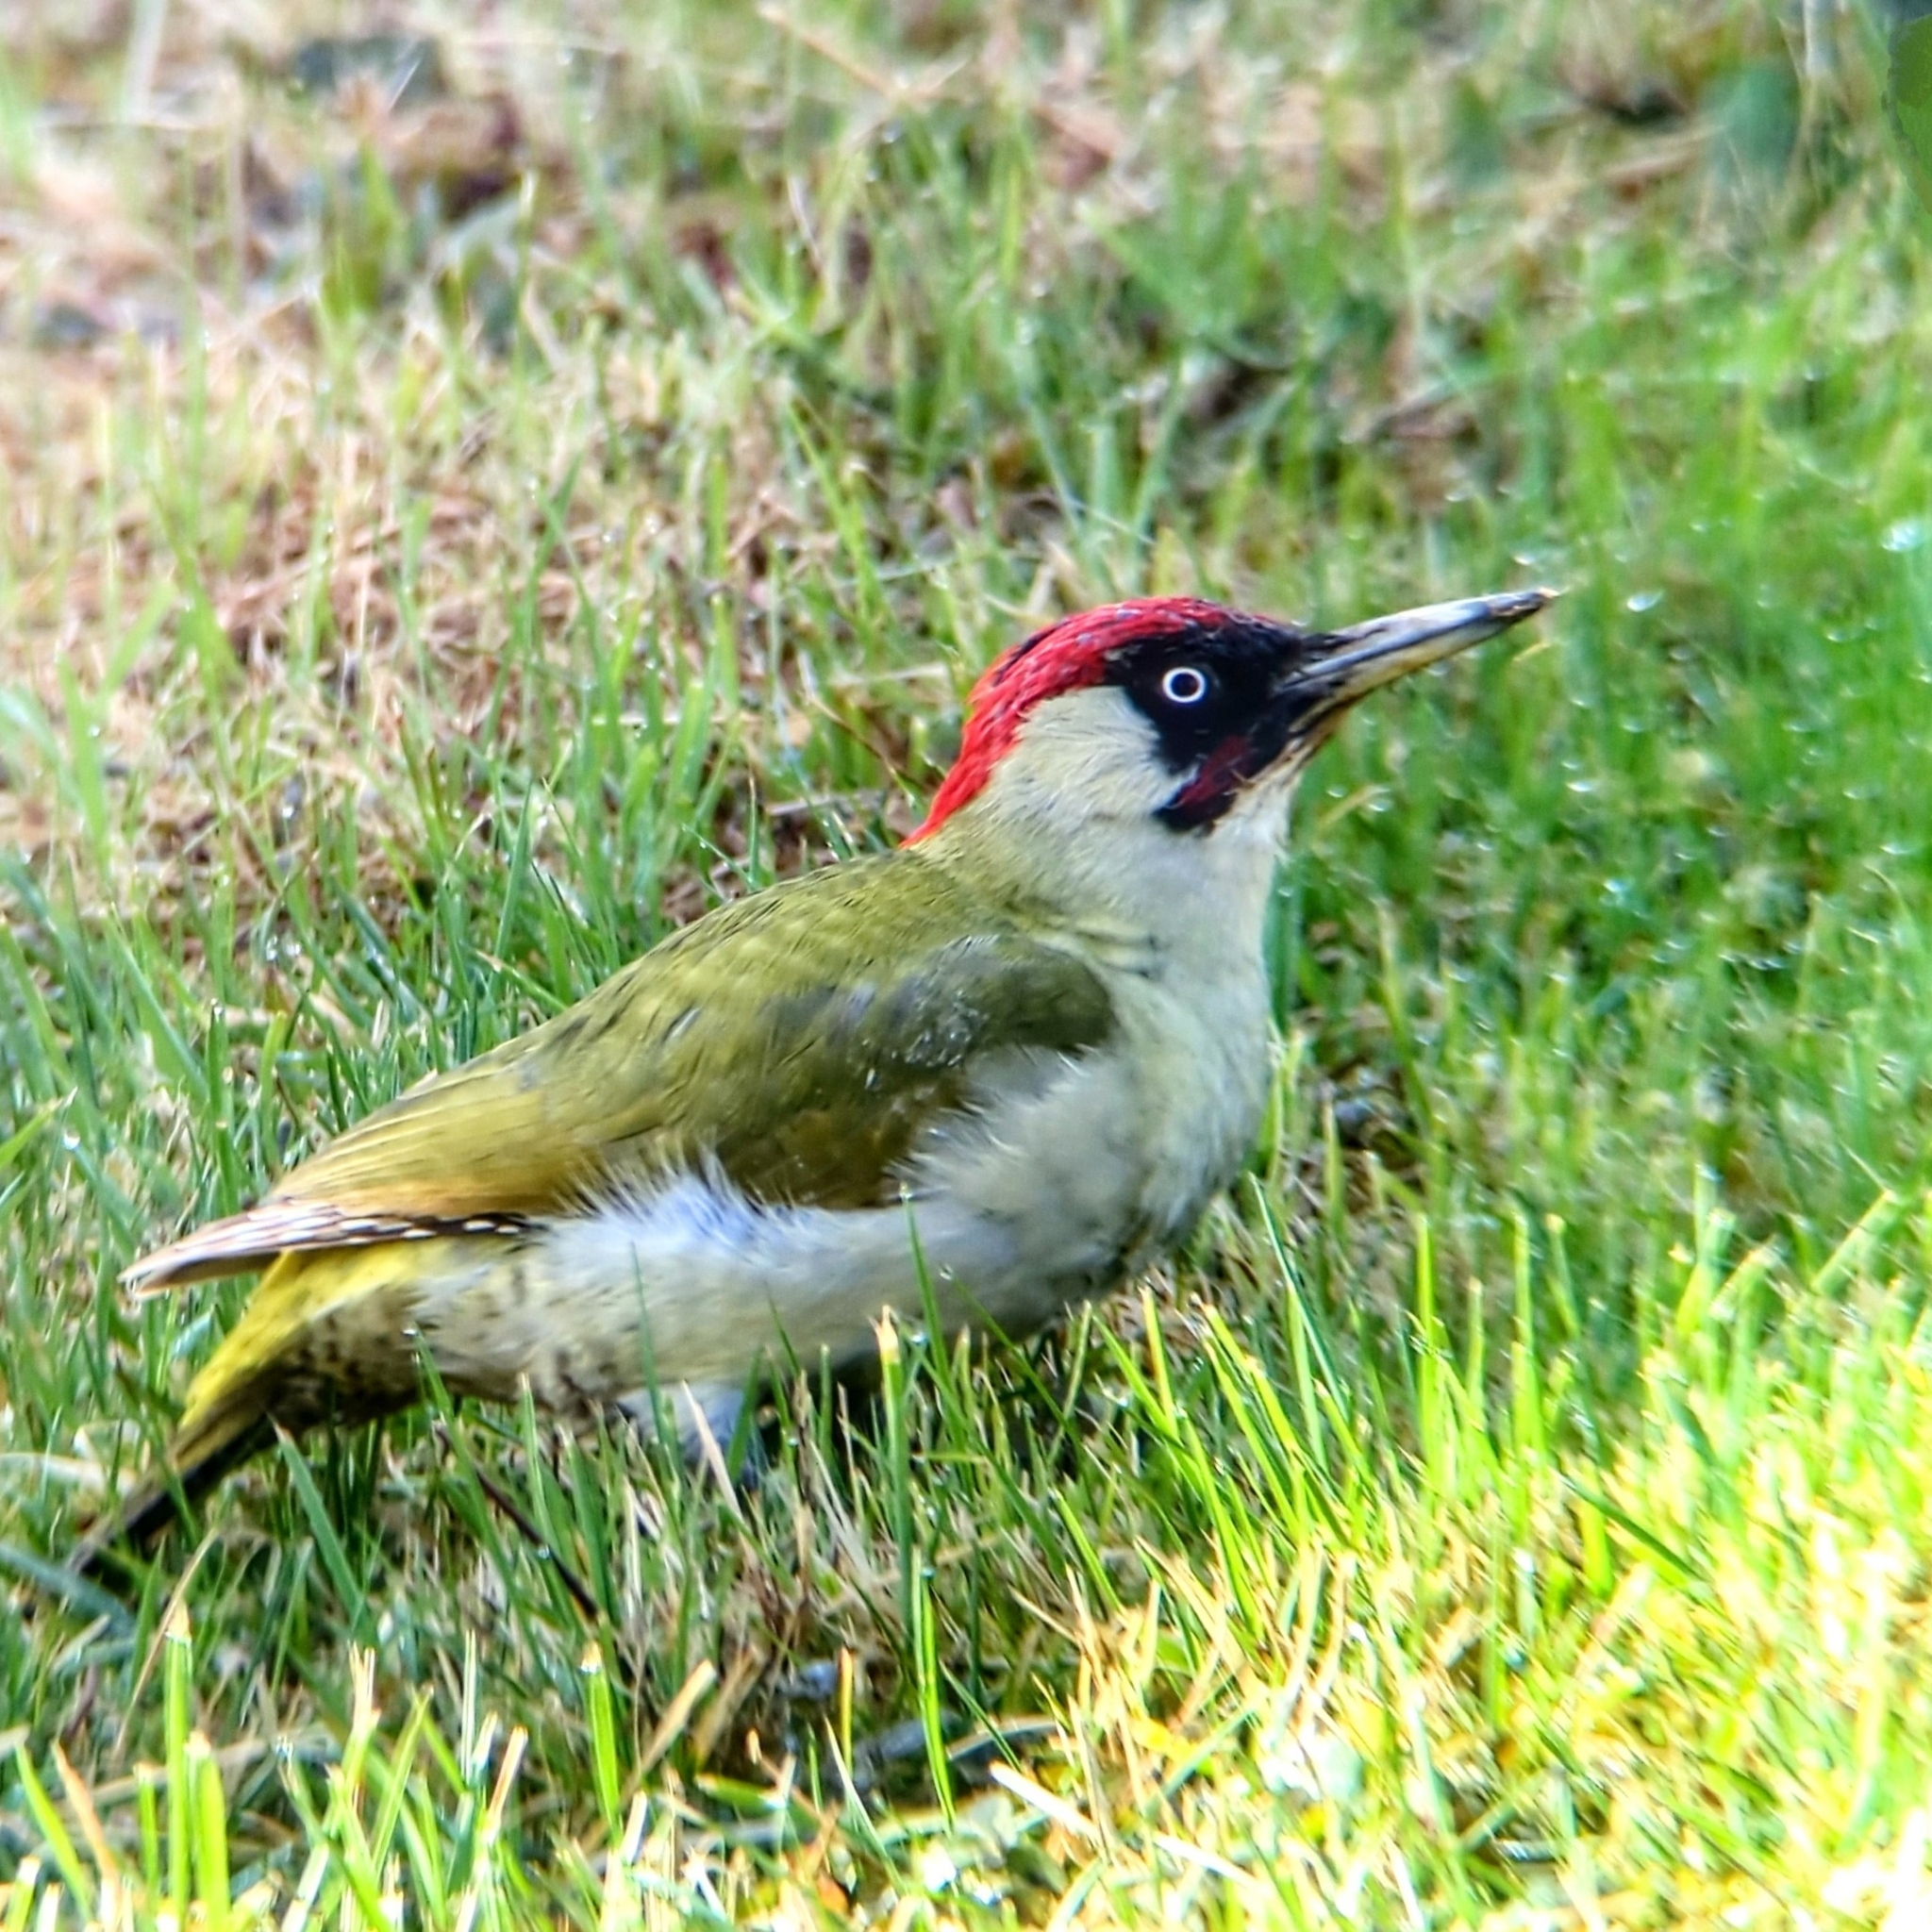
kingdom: Animalia
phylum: Chordata
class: Aves
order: Piciformes
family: Picidae
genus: Picus
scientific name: Picus viridis
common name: European green woodpecker
